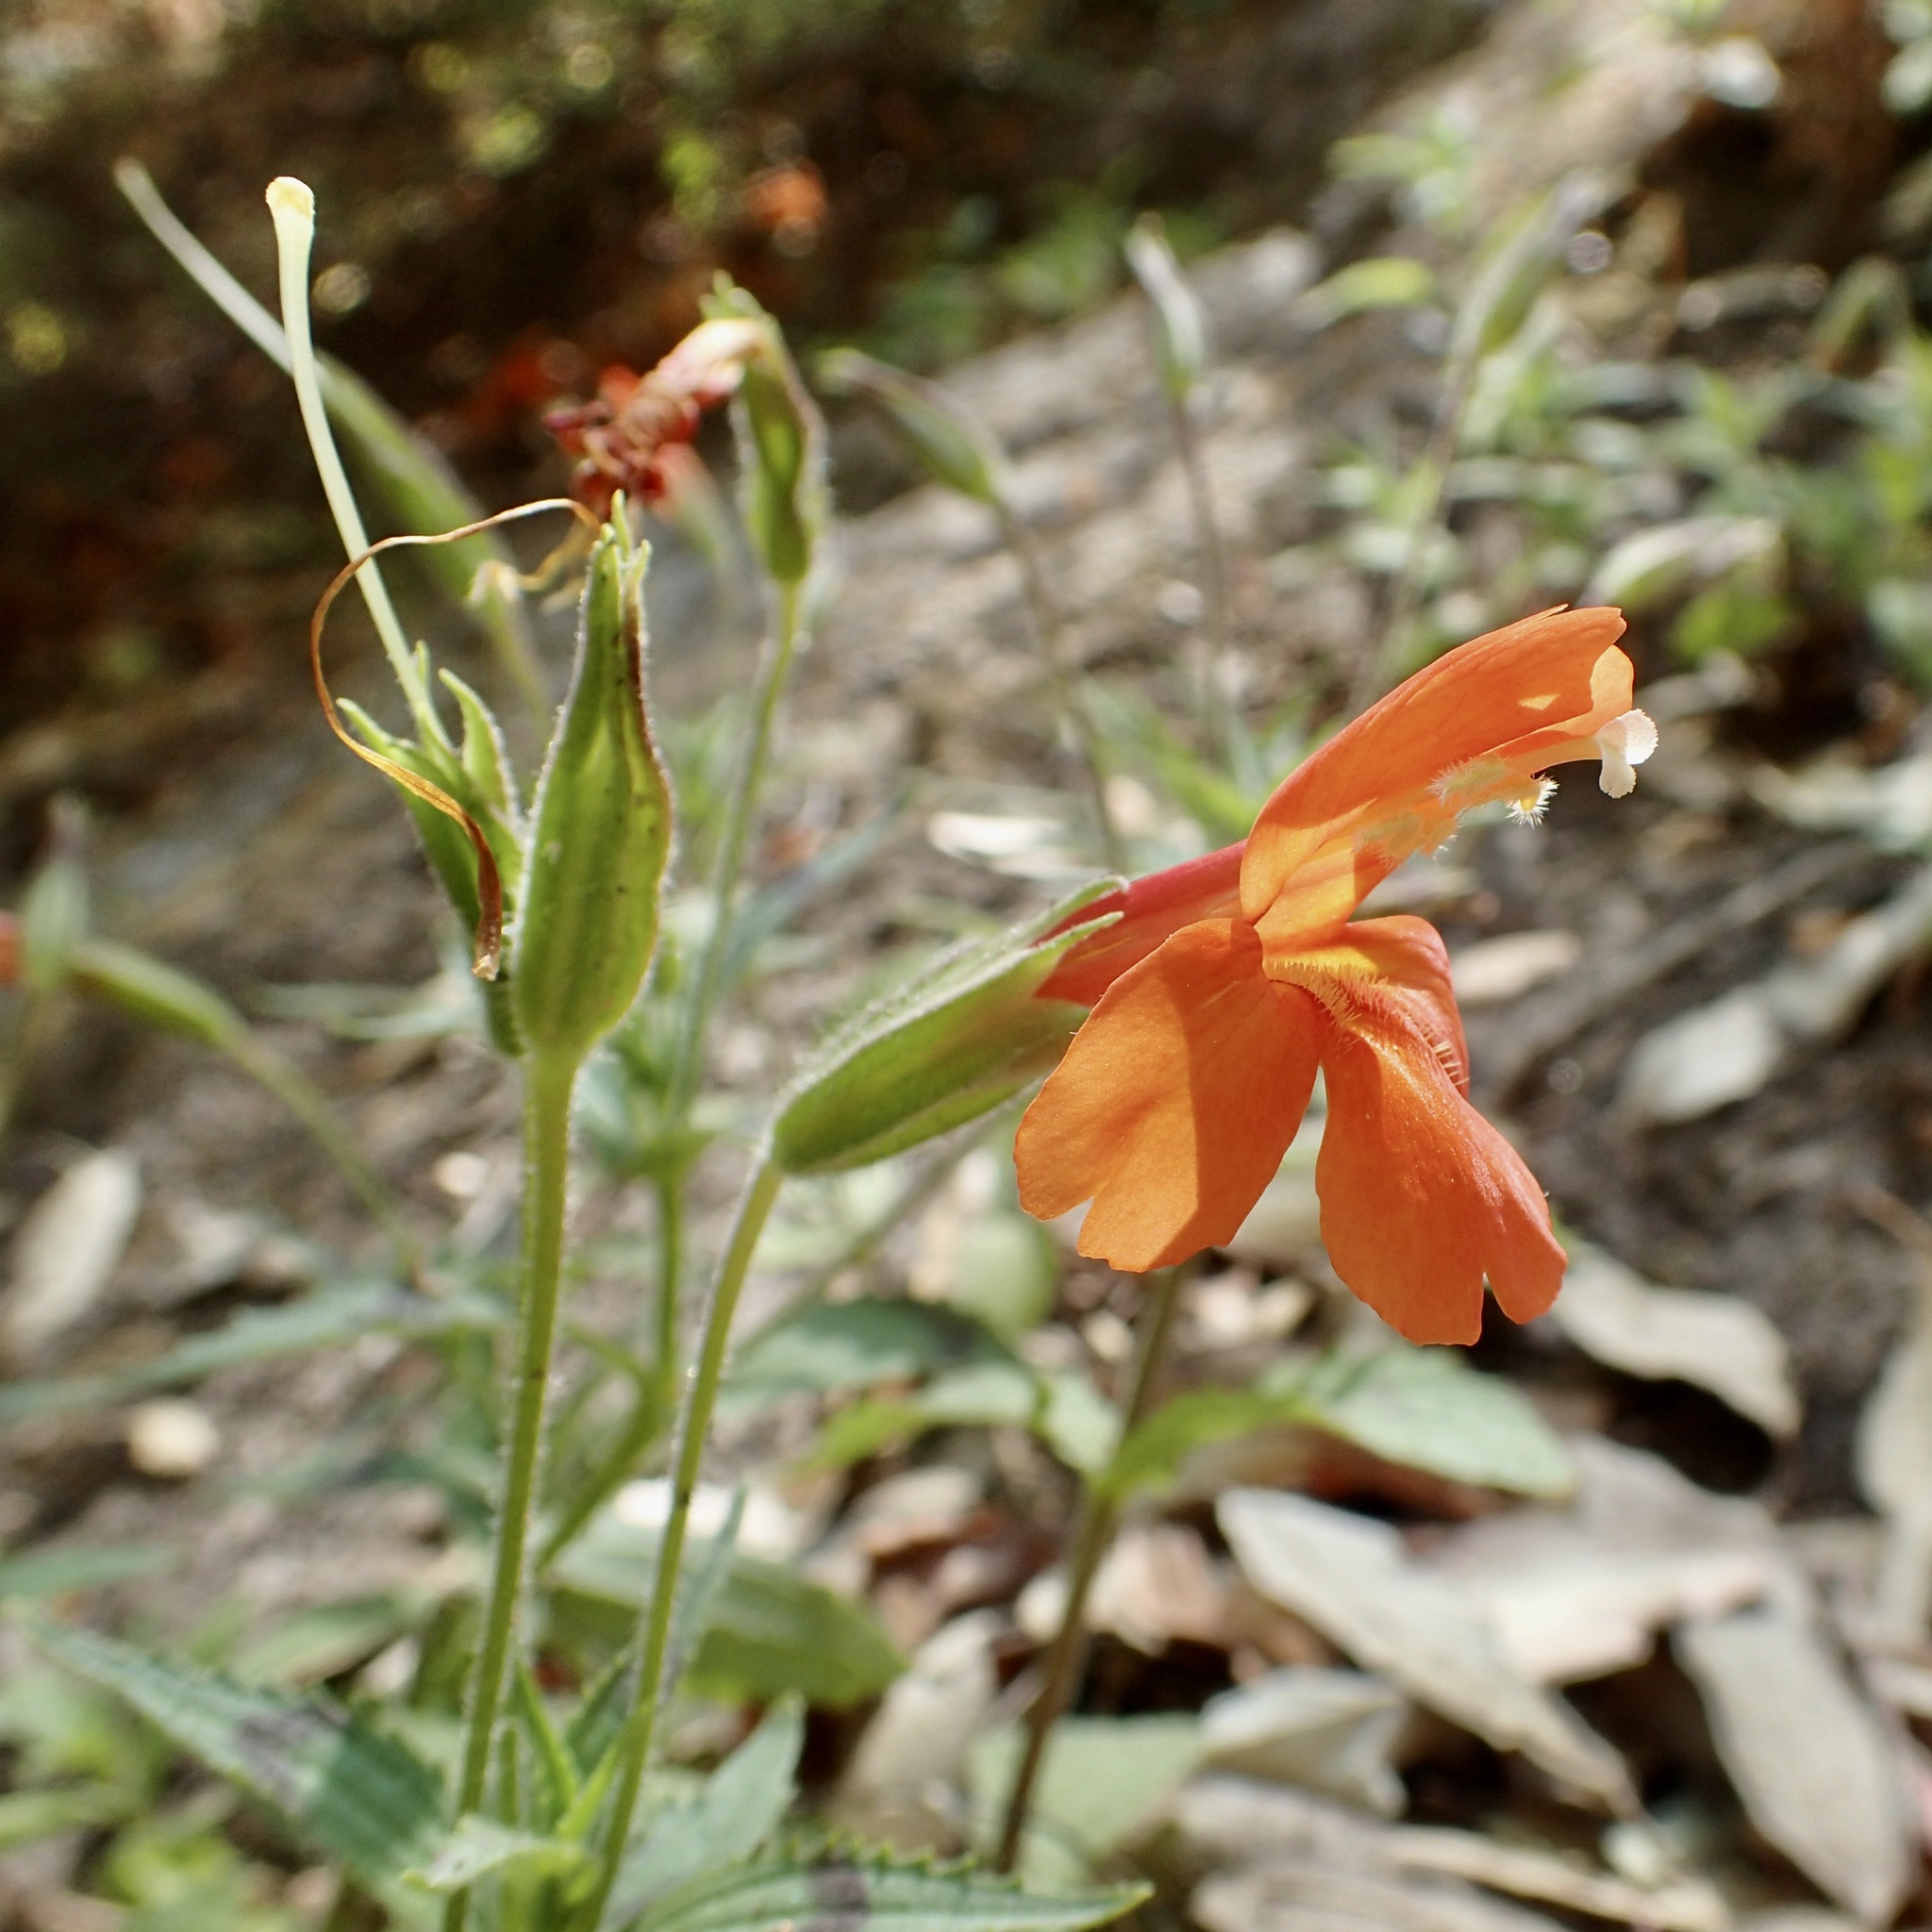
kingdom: Plantae
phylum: Tracheophyta
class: Magnoliopsida
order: Lamiales
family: Phrymaceae
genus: Erythranthe
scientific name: Erythranthe verbenacea
